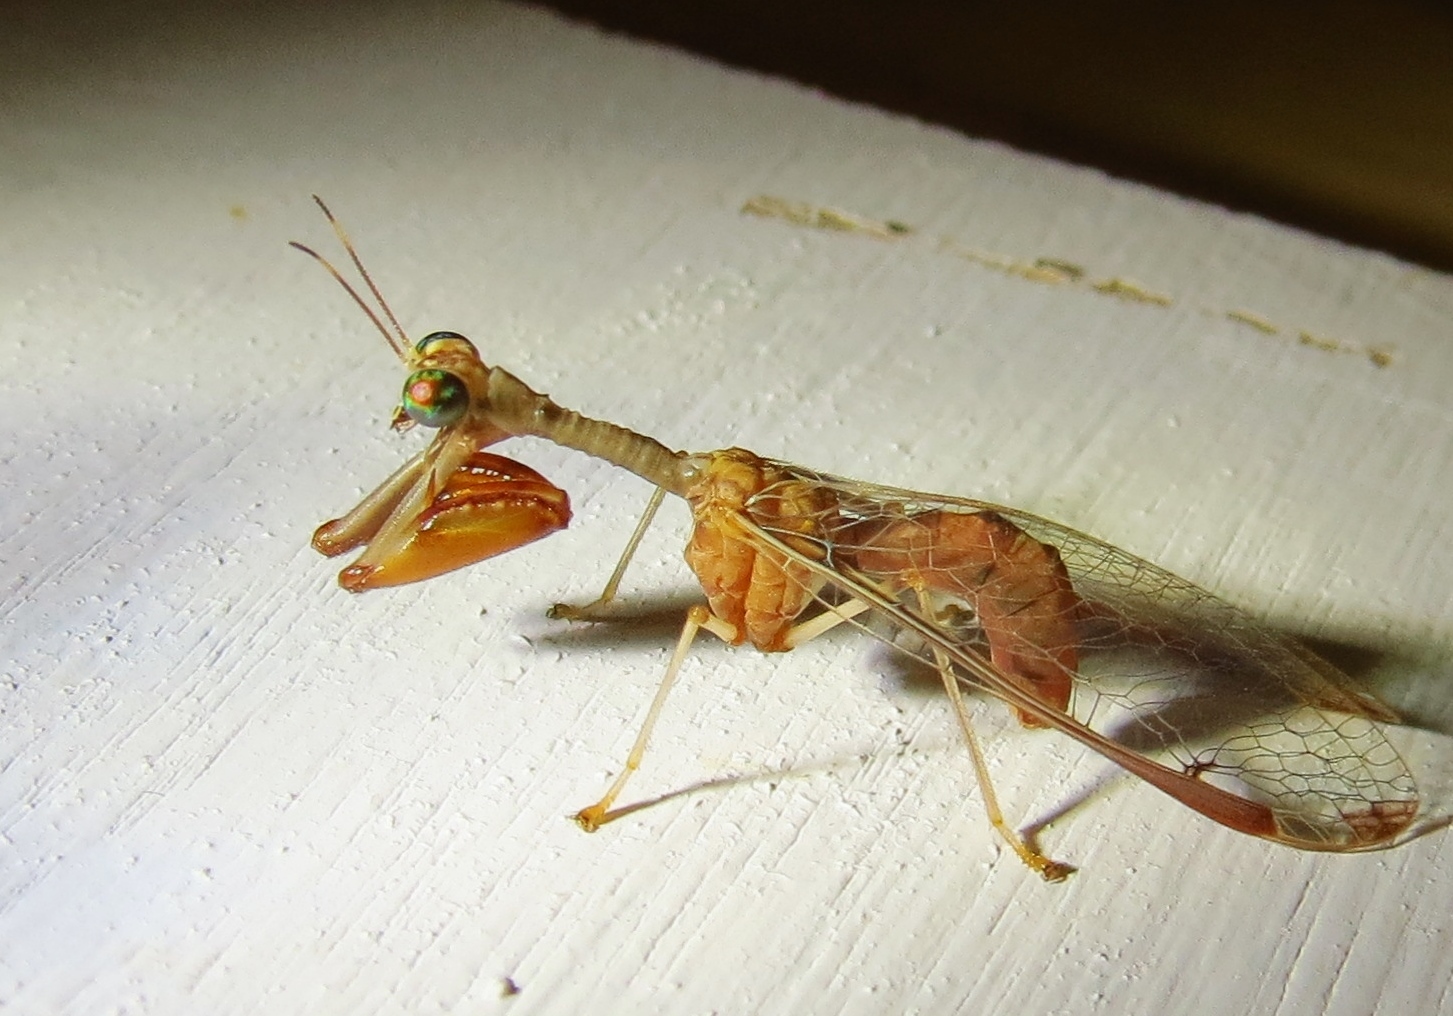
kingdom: Animalia
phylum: Arthropoda
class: Insecta
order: Neuroptera
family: Mantispidae
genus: Dicromantispa
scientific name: Dicromantispa interrupta
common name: Four-spotted mantidfly
